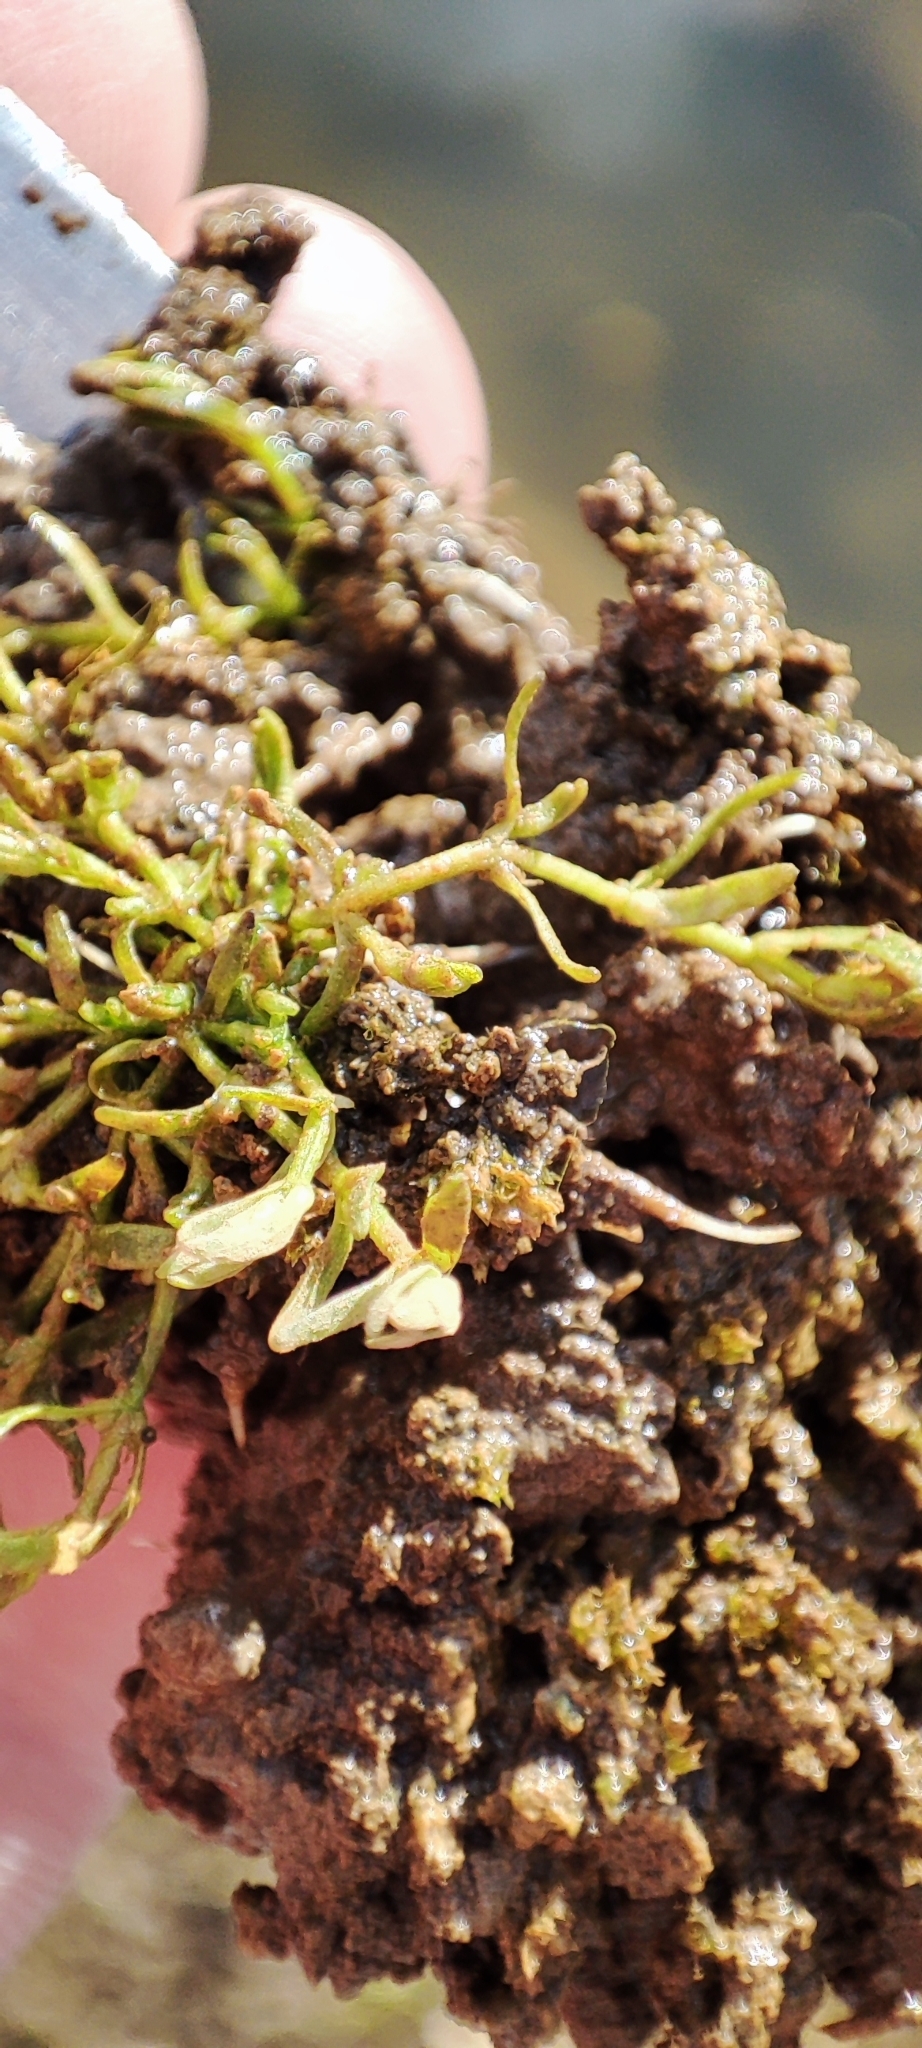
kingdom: Plantae
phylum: Tracheophyta
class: Magnoliopsida
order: Lamiales
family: Plantaginaceae
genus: Callitriche
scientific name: Callitriche palustris
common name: Spring water-starwort
